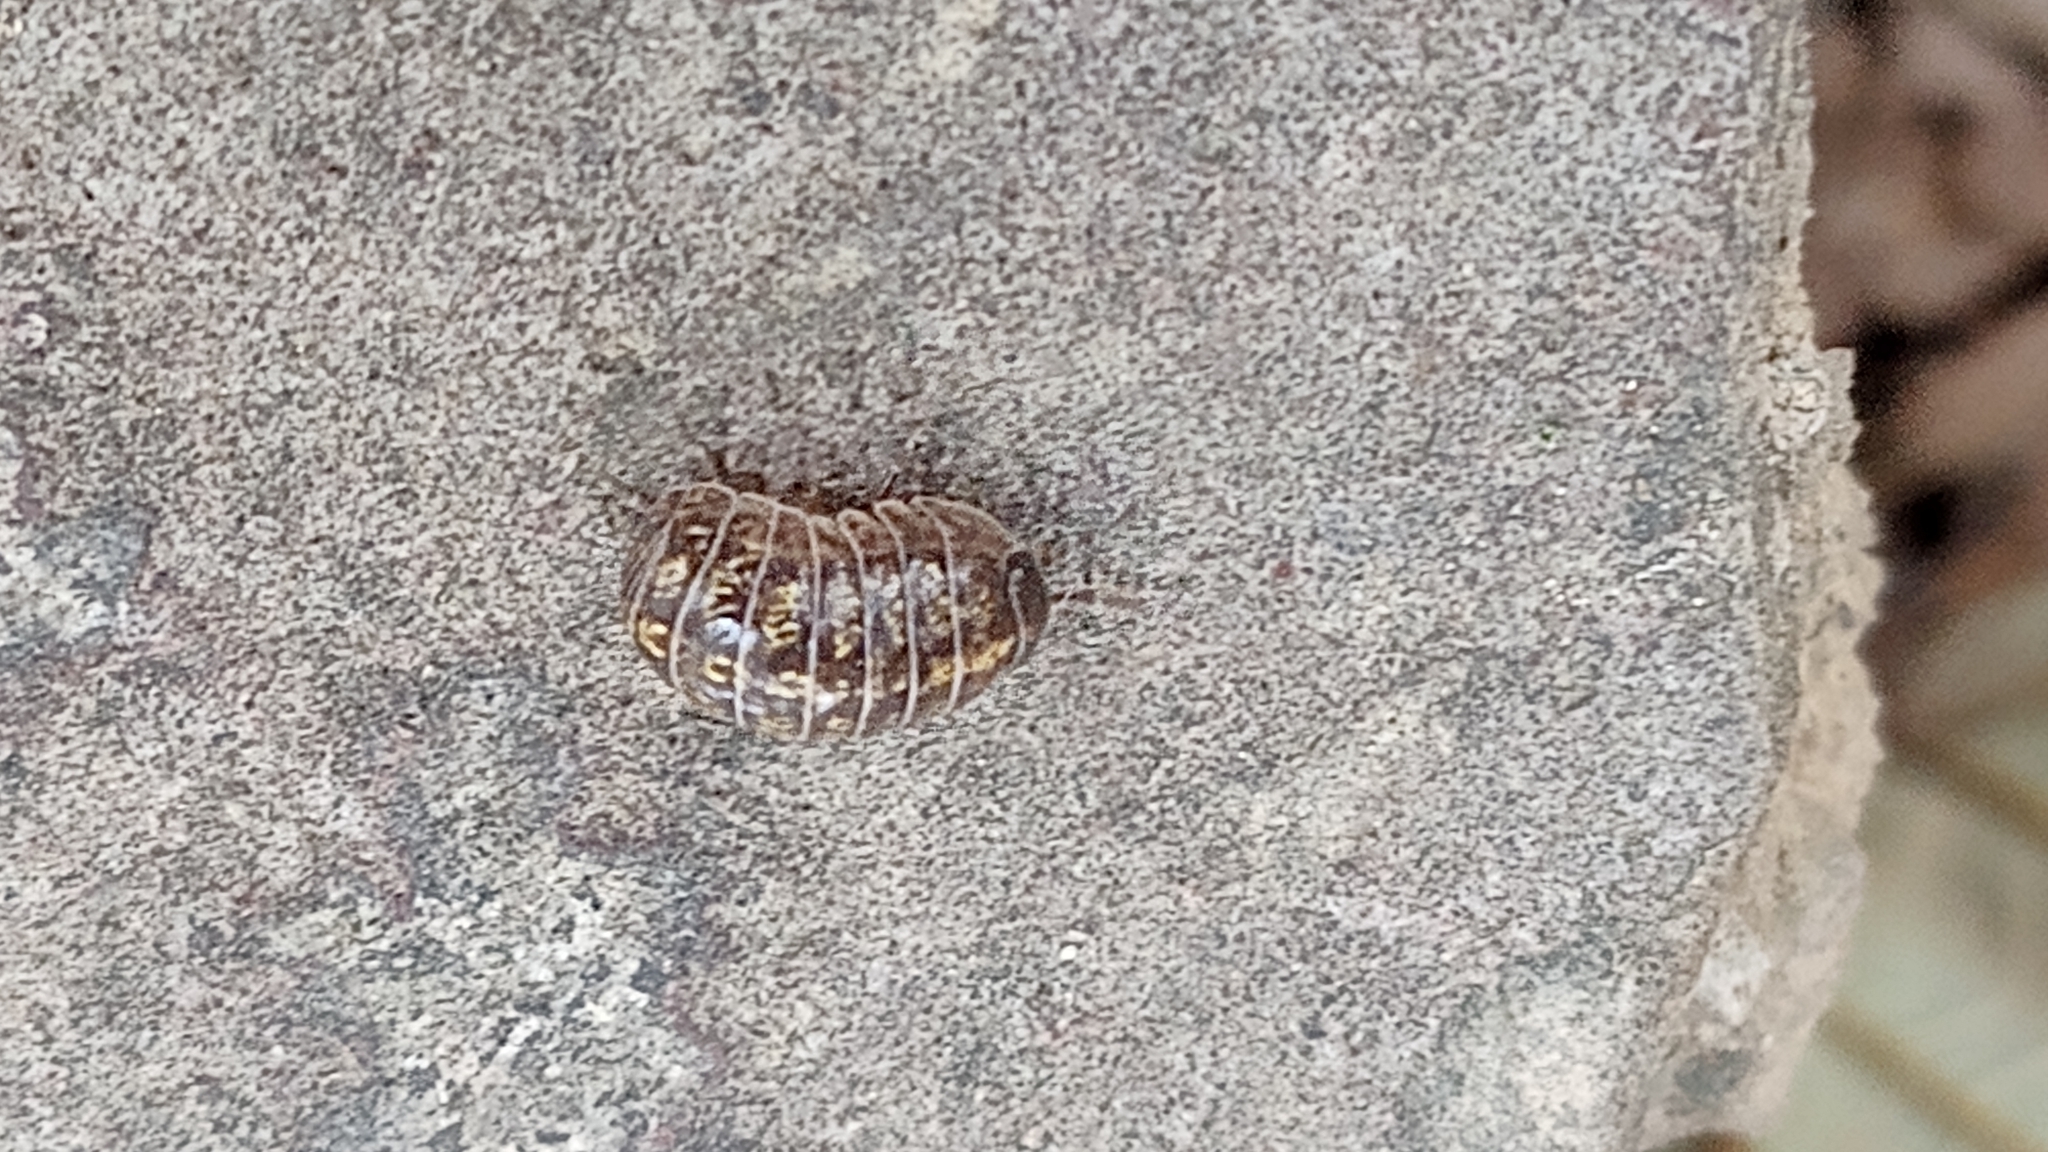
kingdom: Animalia
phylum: Arthropoda
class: Malacostraca
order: Isopoda
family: Armadillidiidae
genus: Armadillidium
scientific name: Armadillidium vulgare
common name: Common pill woodlouse
